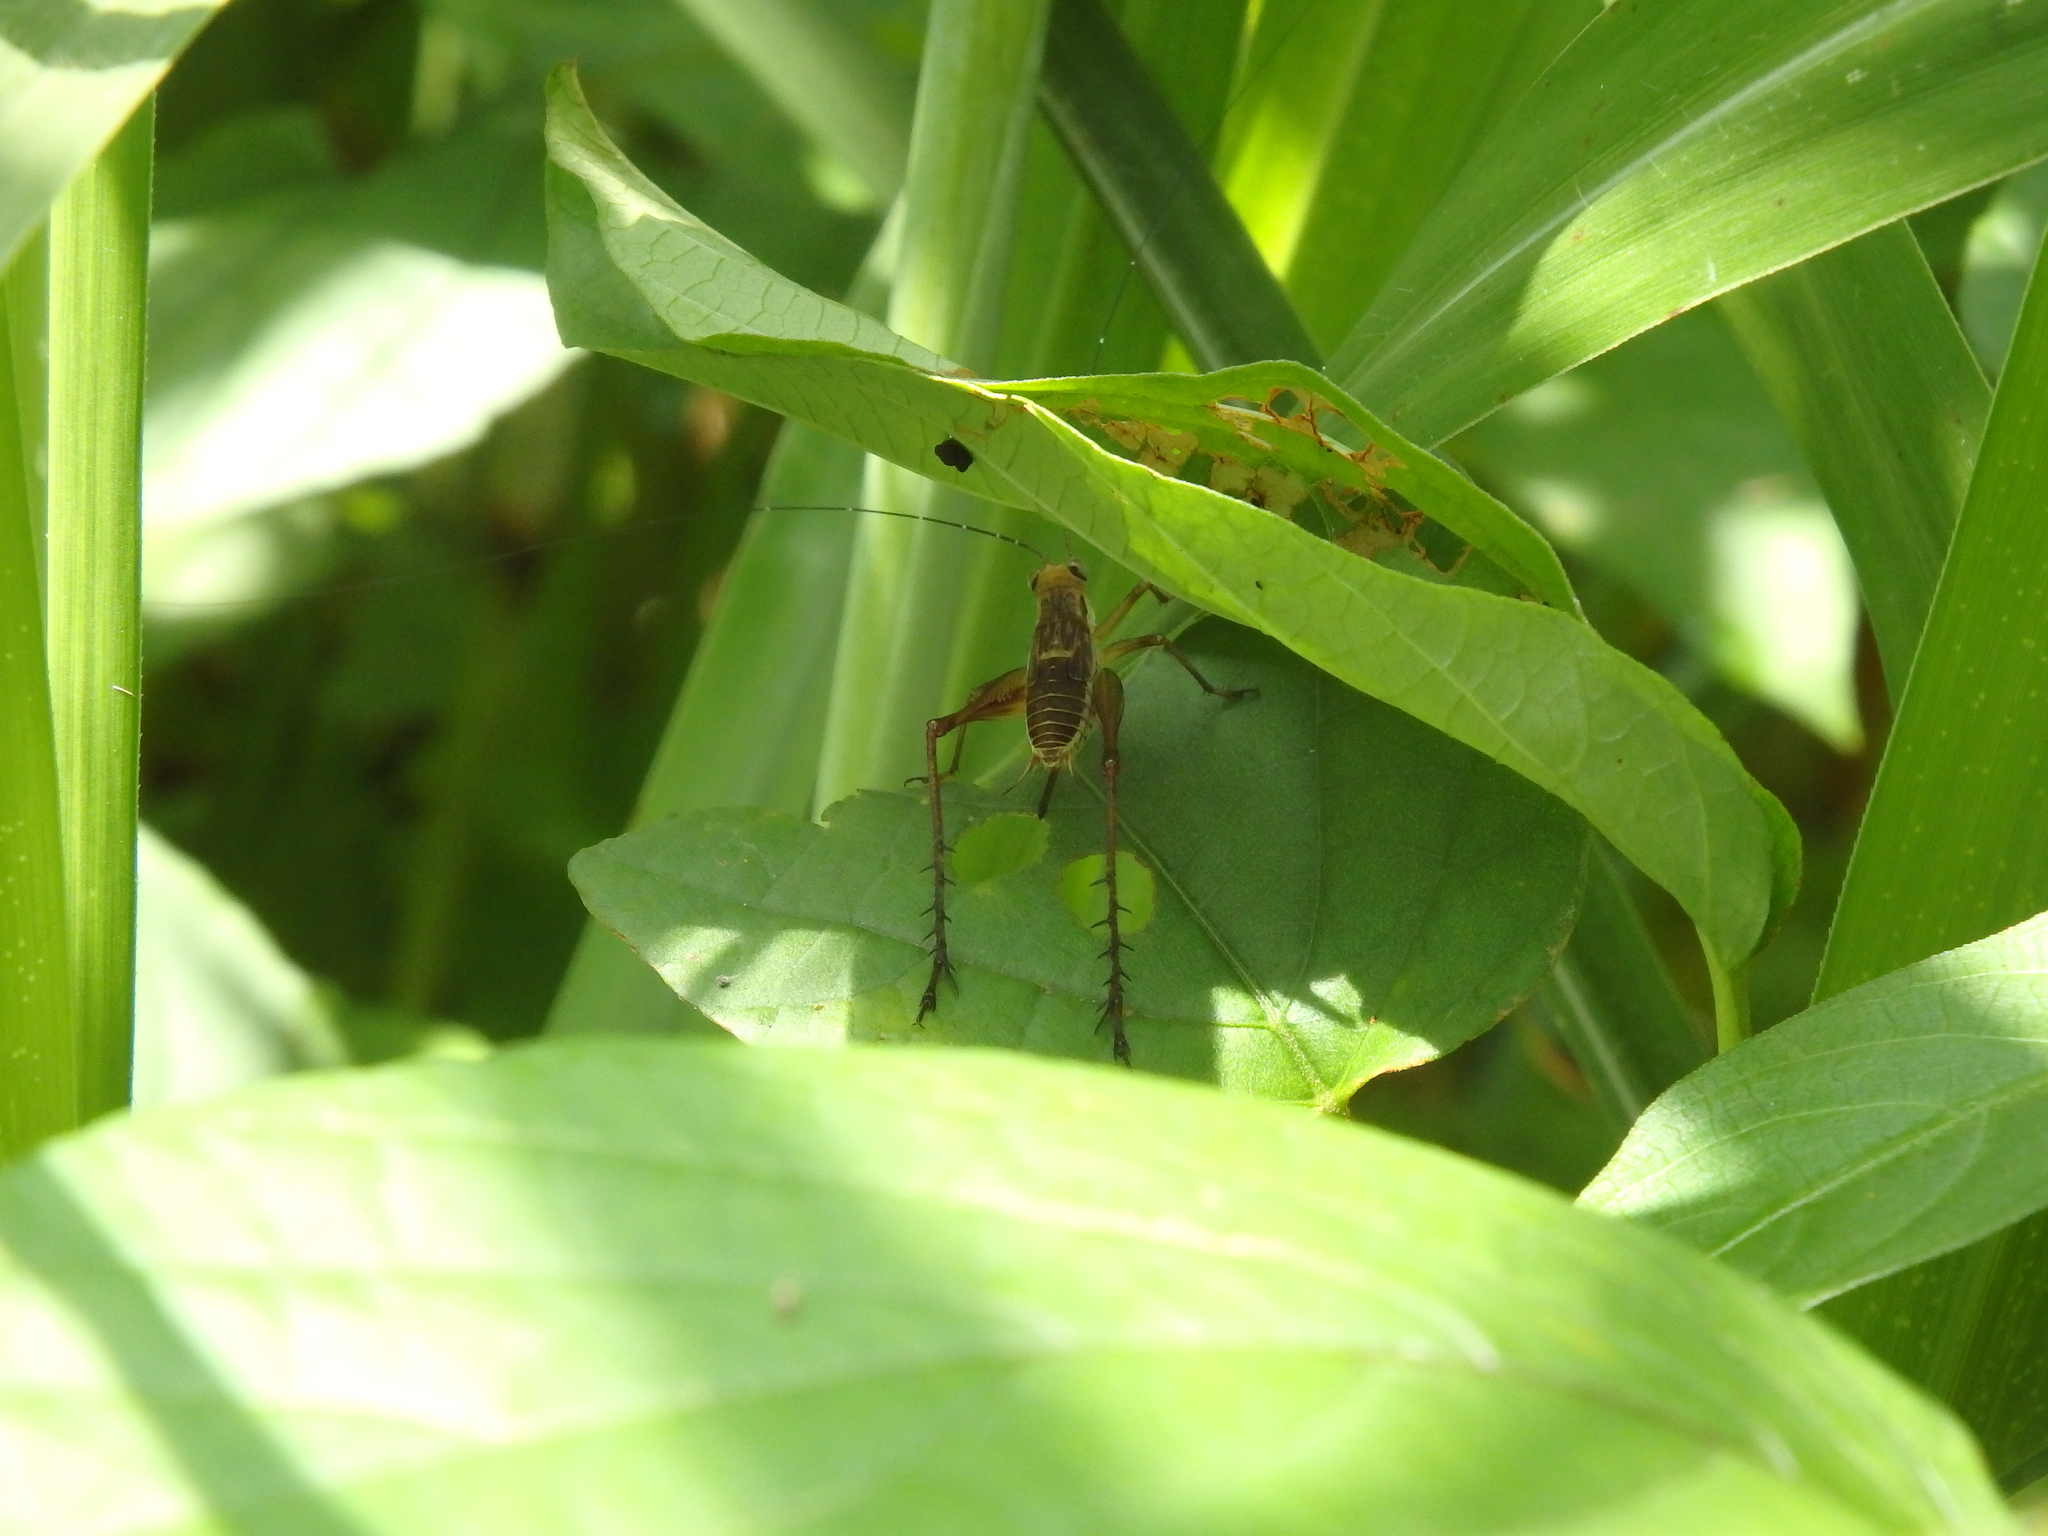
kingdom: Animalia
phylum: Arthropoda
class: Insecta
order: Orthoptera
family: Gryllidae
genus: Nisitrus
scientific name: Nisitrus malaya
